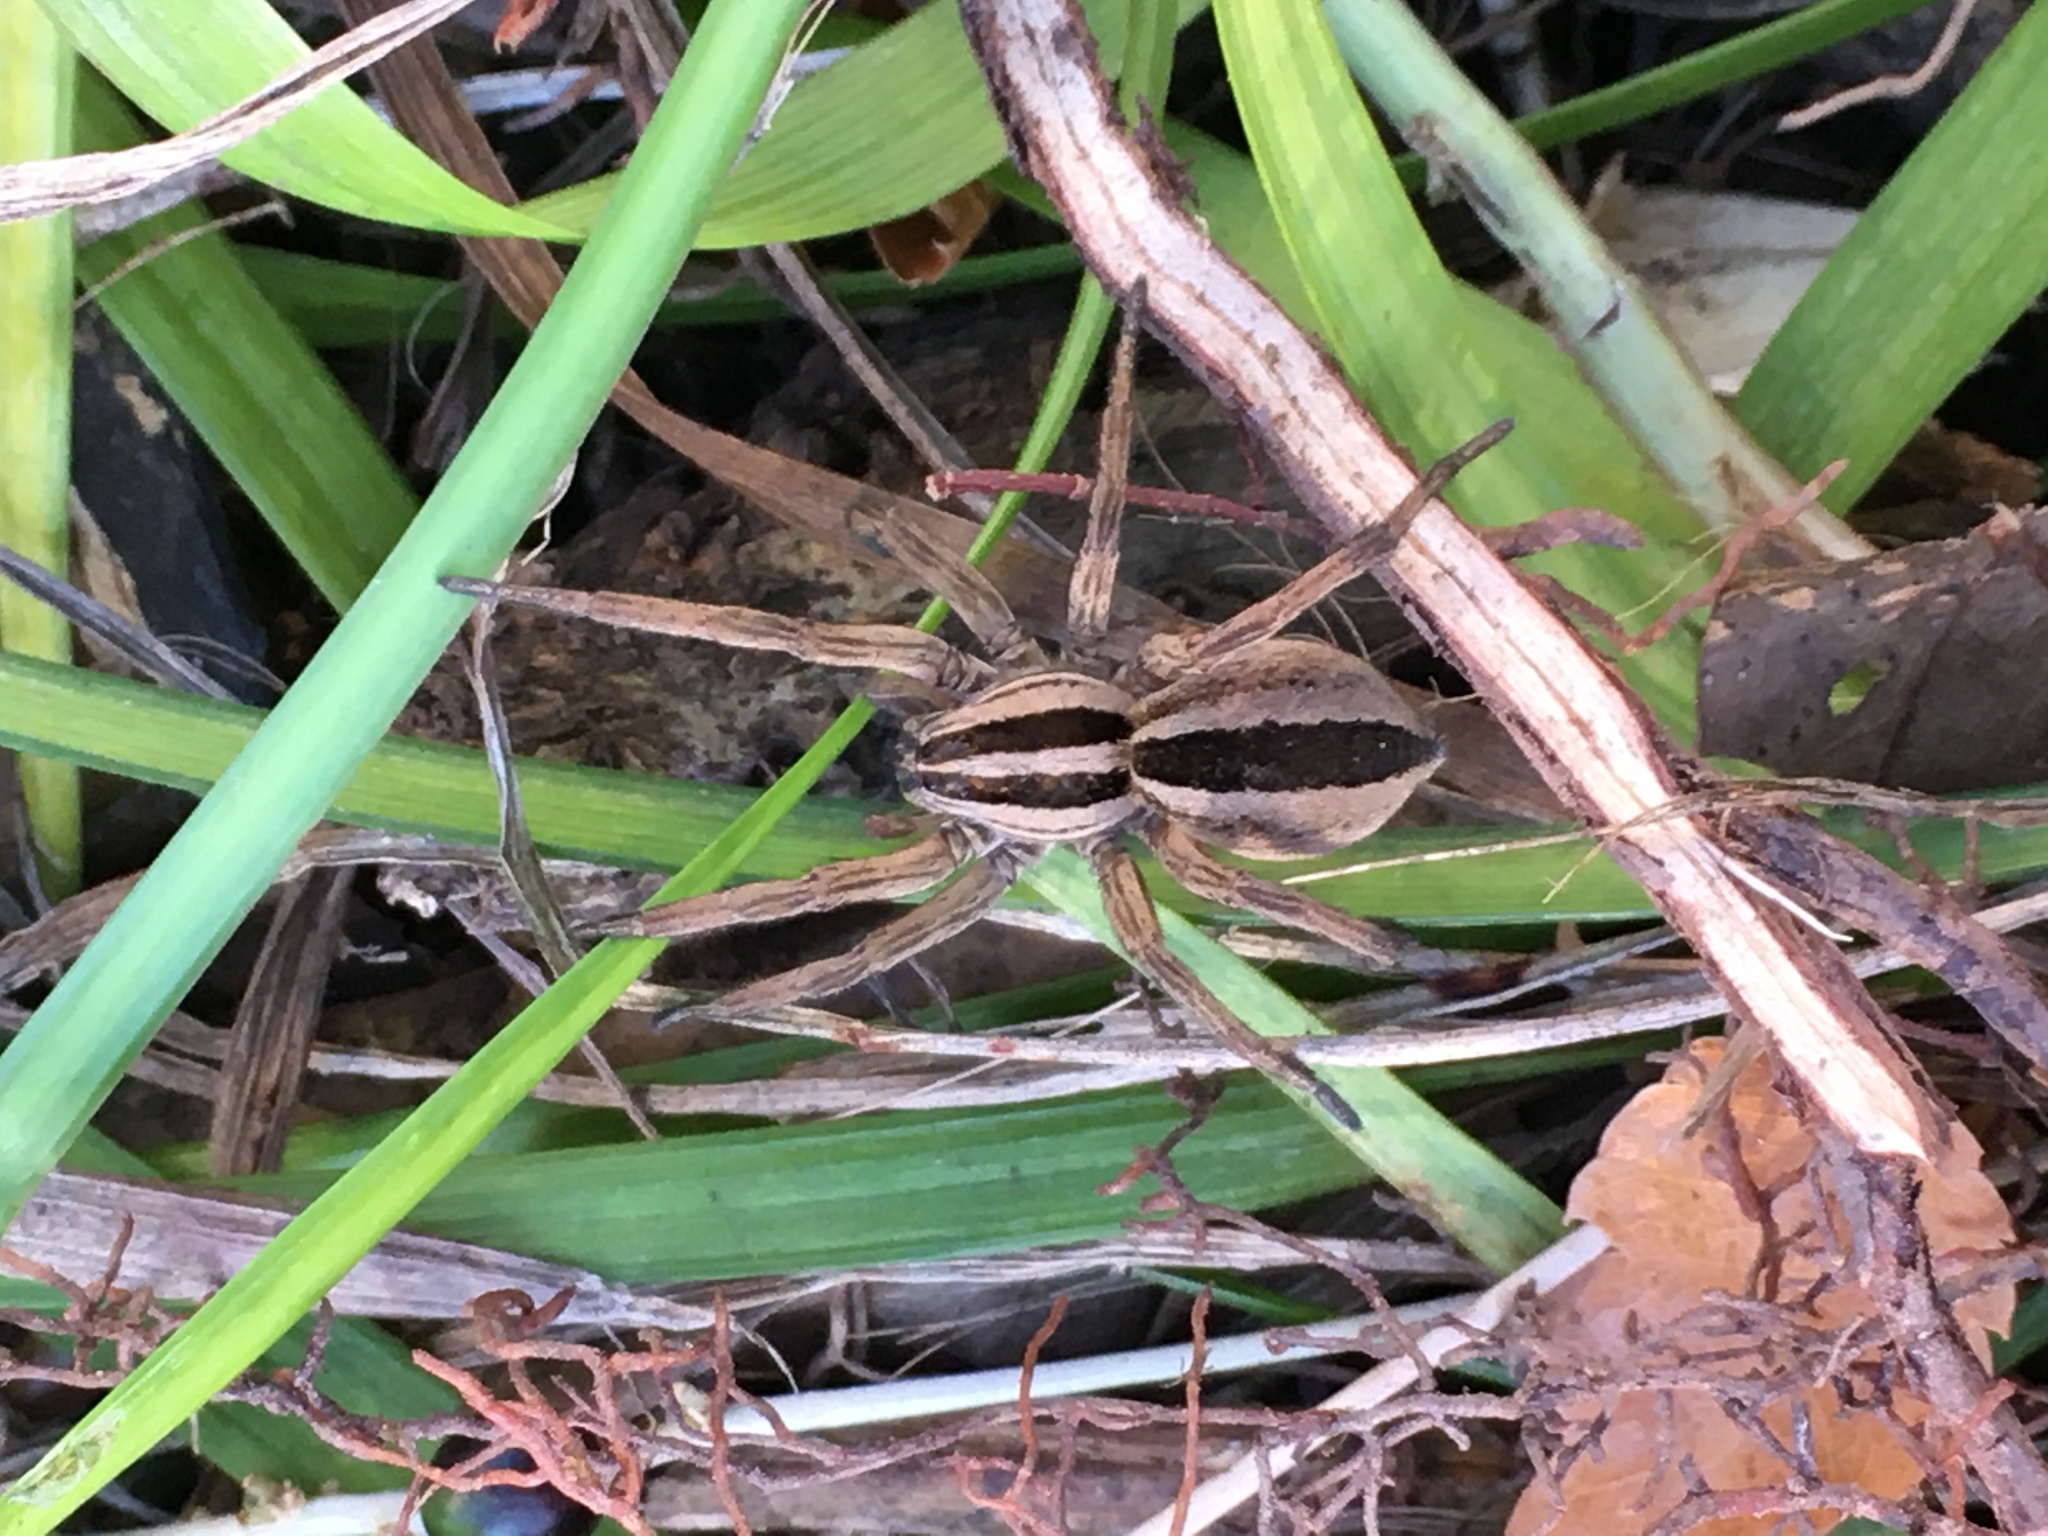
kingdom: Animalia
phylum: Arthropoda
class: Arachnida
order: Araneae
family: Lycosidae
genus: Rabidosa
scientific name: Rabidosa punctulata
